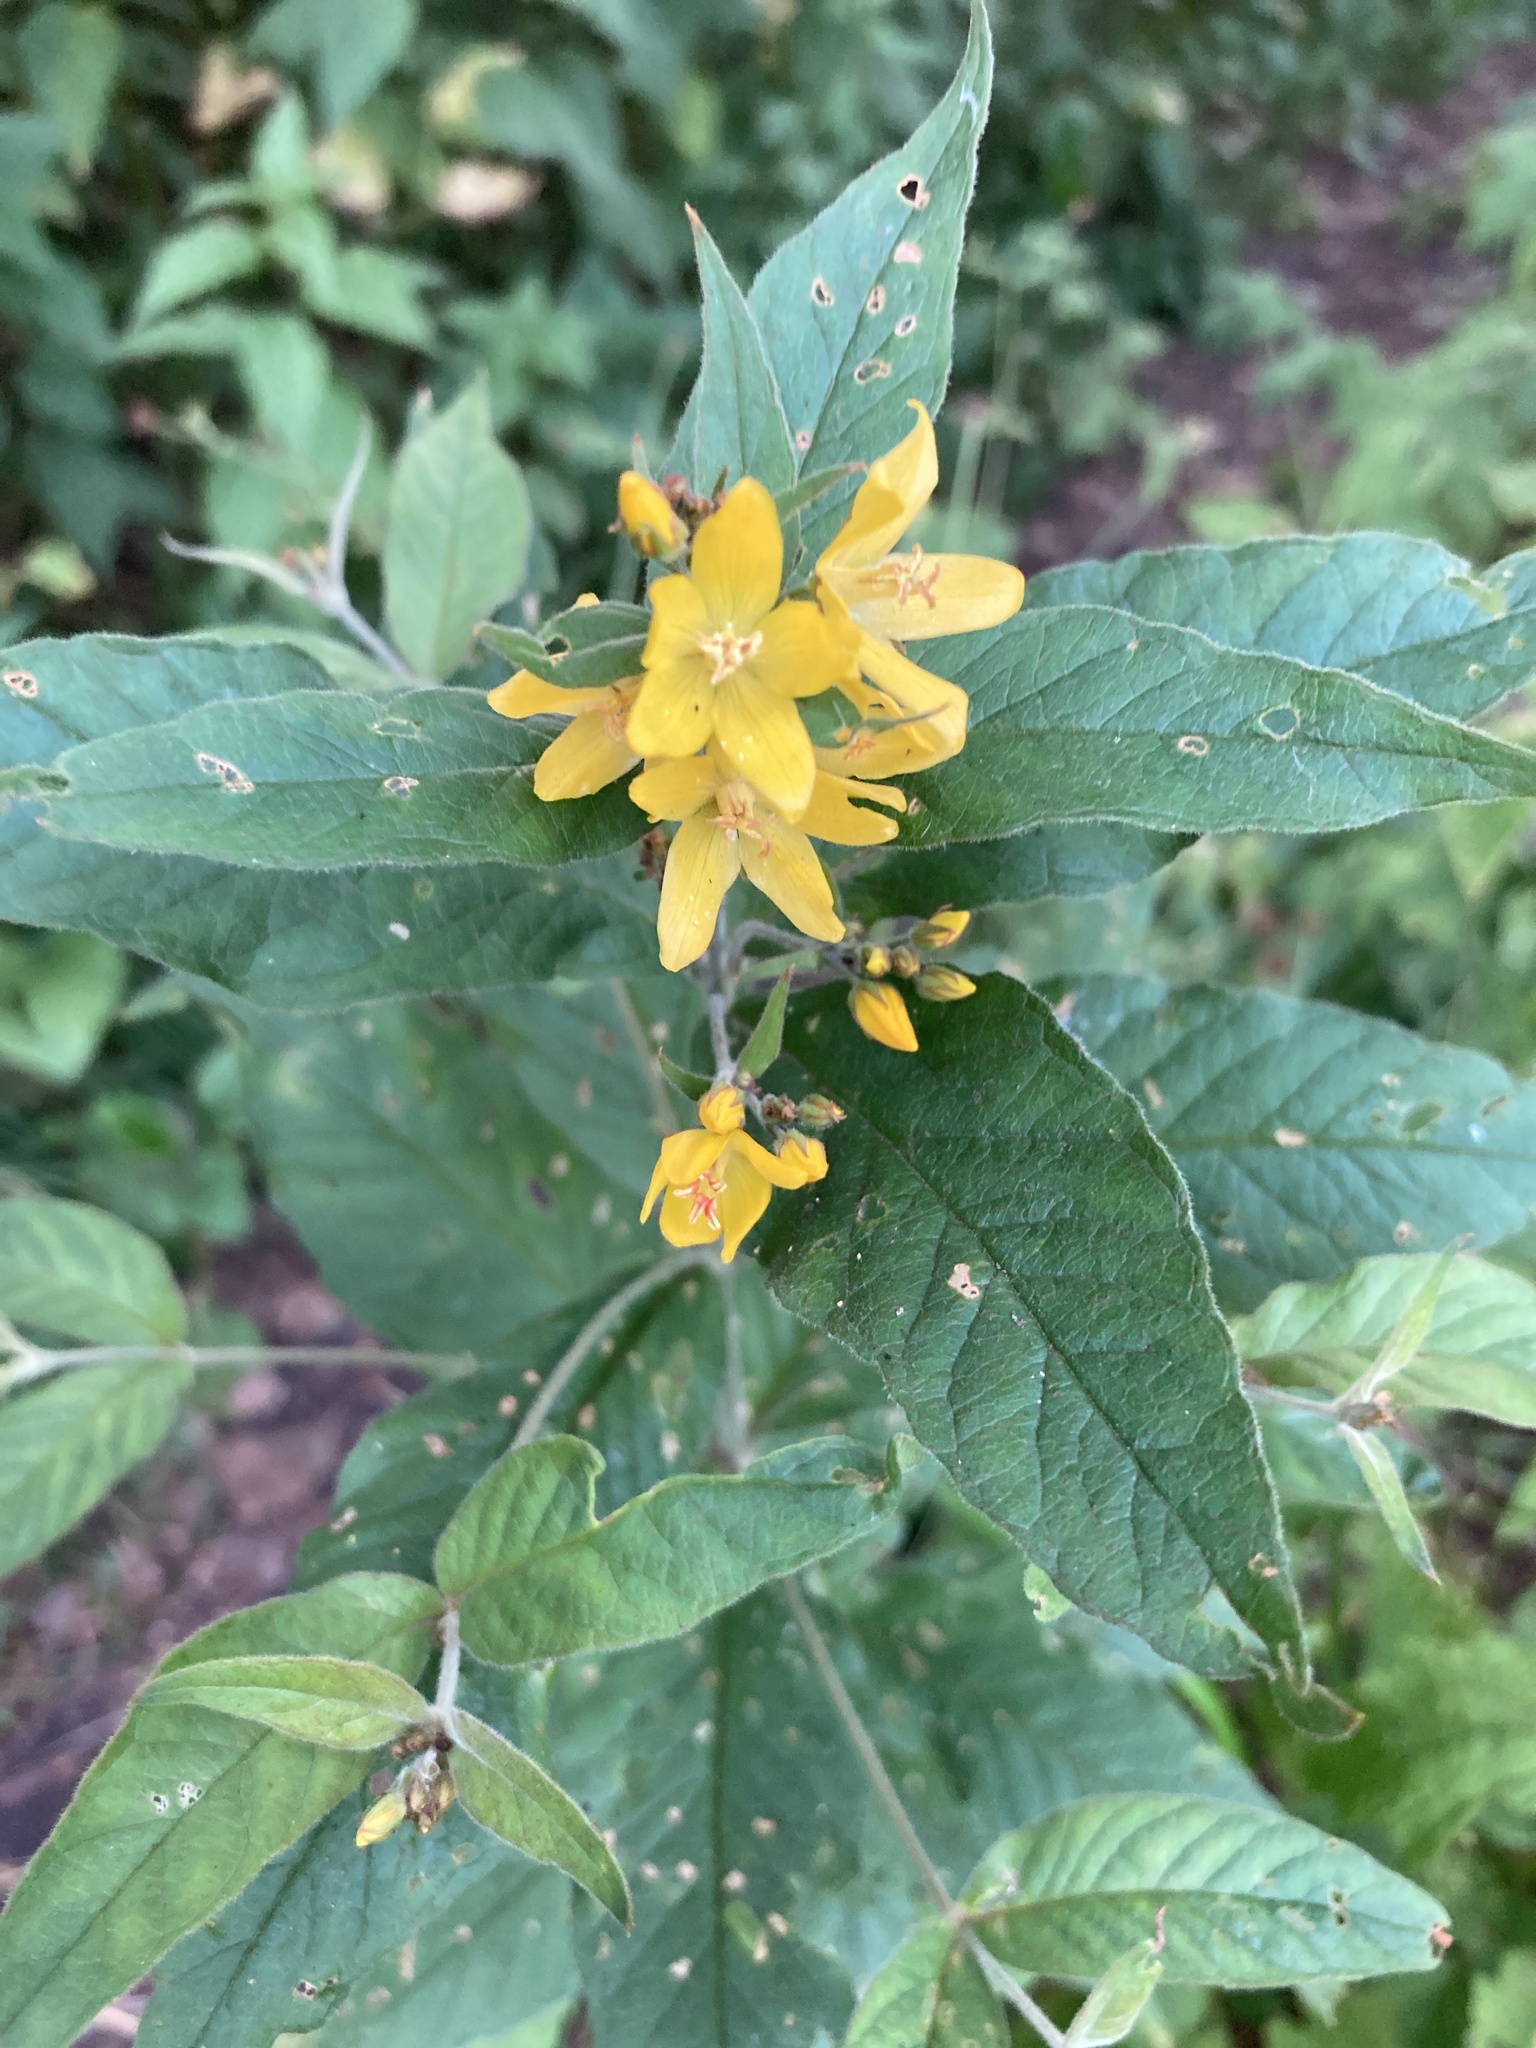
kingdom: Plantae
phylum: Tracheophyta
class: Magnoliopsida
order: Ericales
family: Primulaceae
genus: Lysimachia
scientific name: Lysimachia vulgaris
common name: Yellow loosestrife
